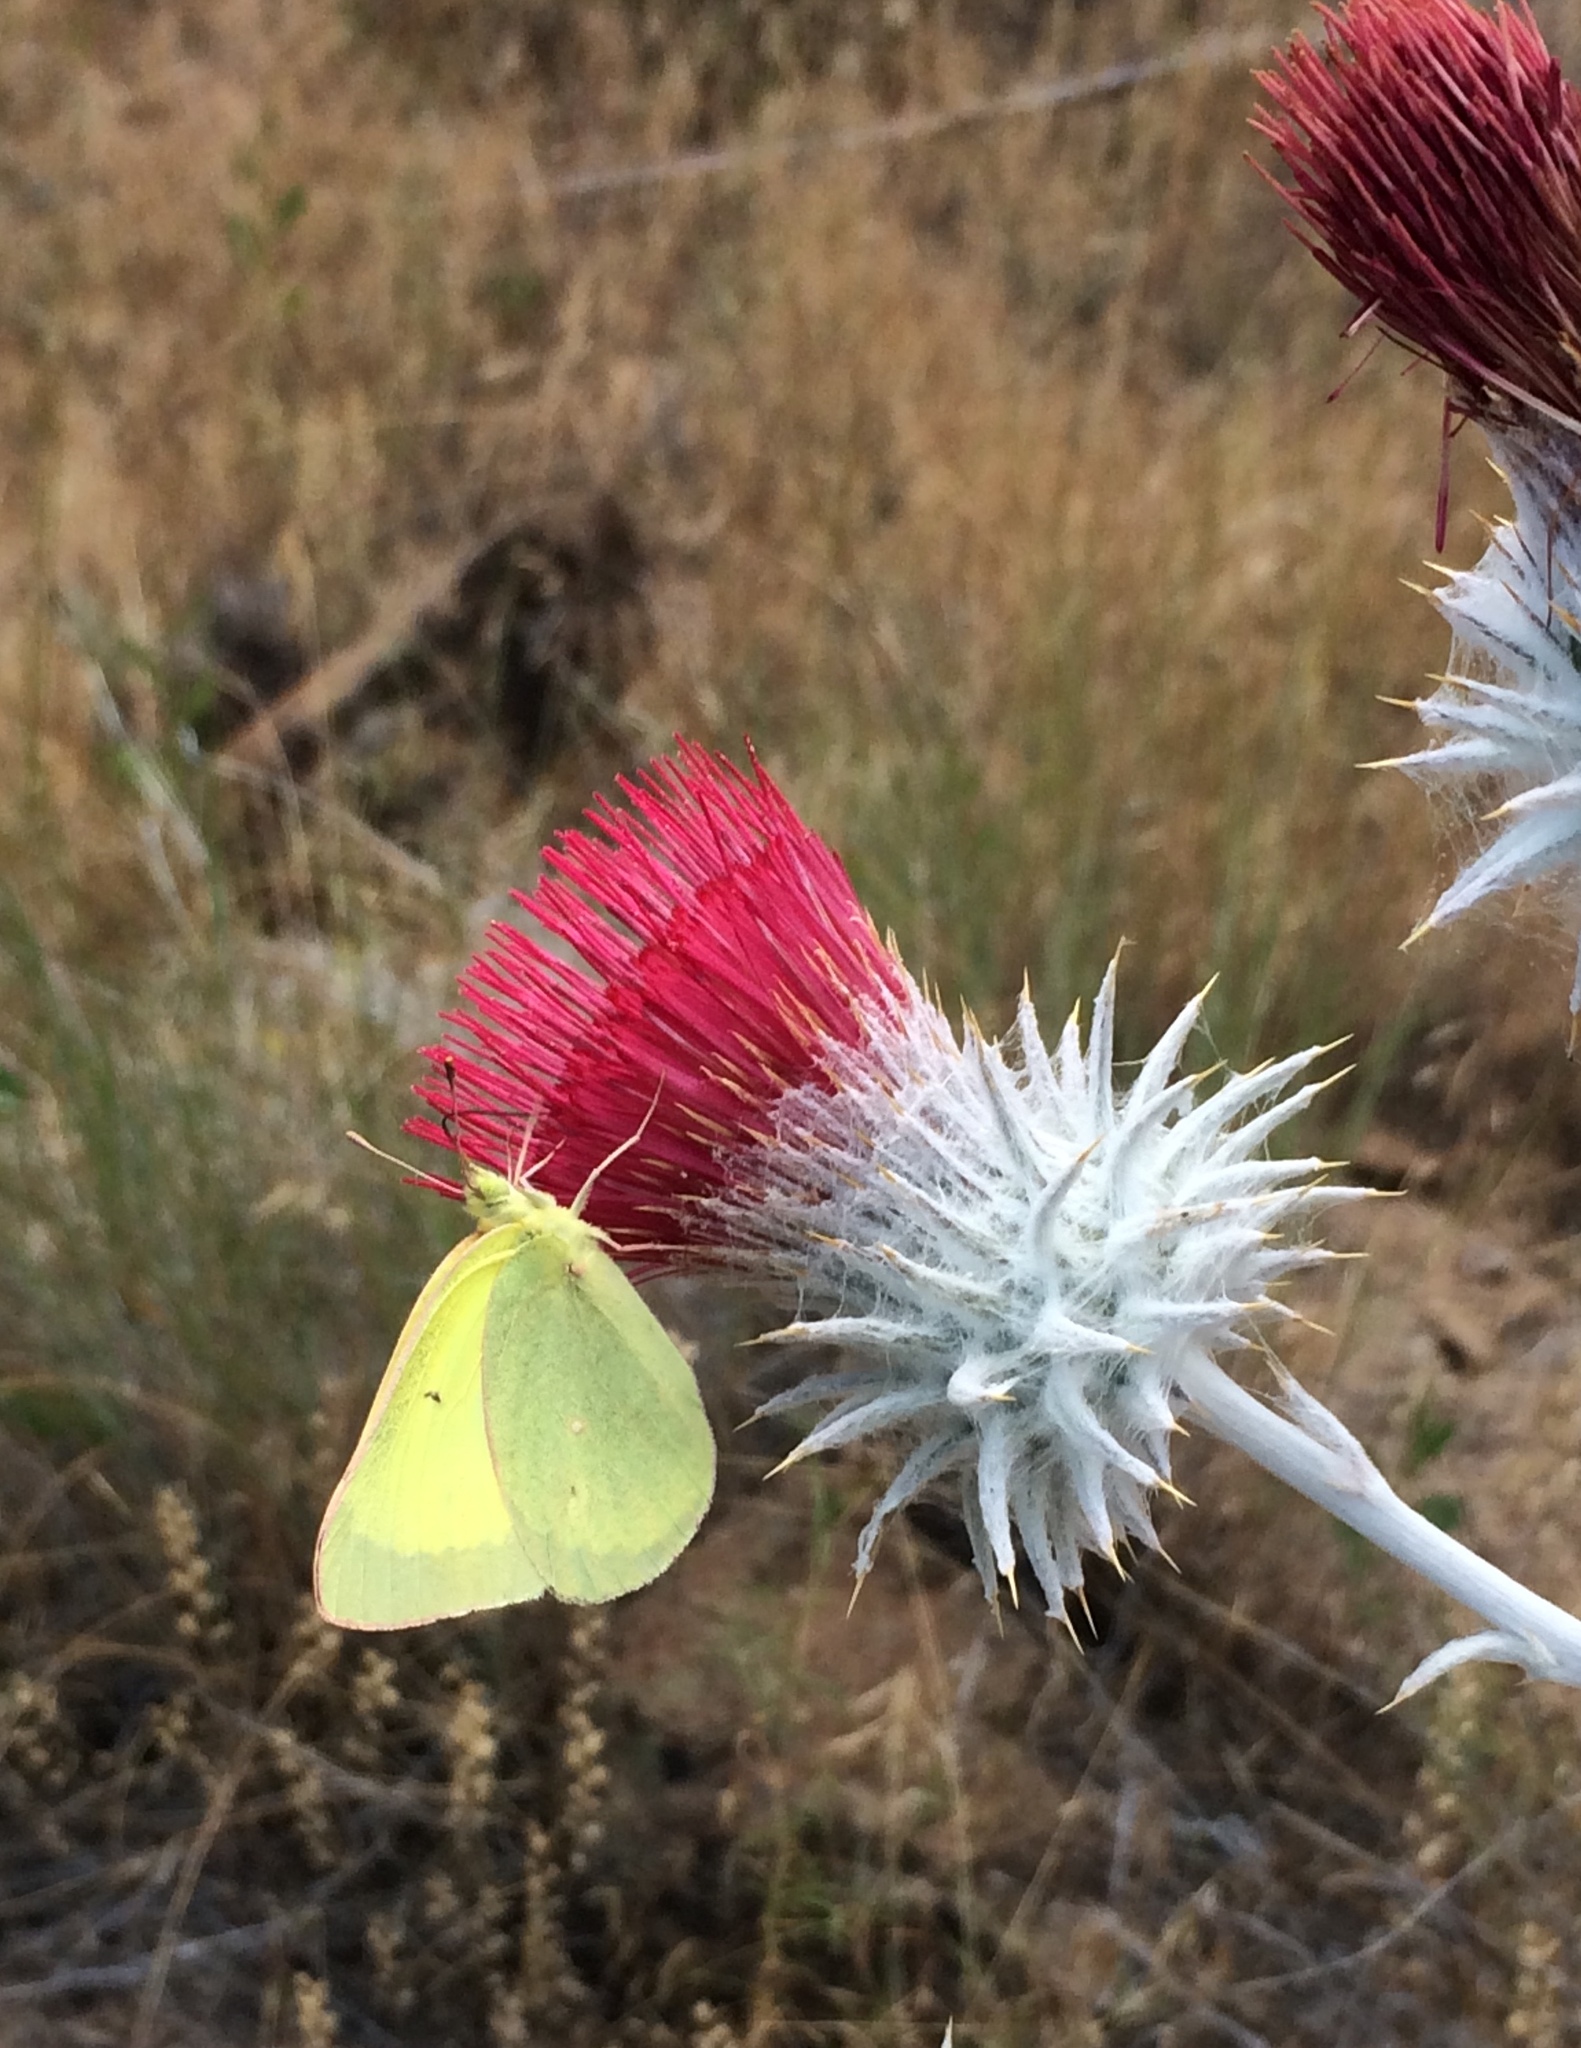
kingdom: Animalia
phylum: Arthropoda
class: Insecta
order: Lepidoptera
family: Pieridae
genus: Colias
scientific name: Colias alexandra
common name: Alexandra sulphur
